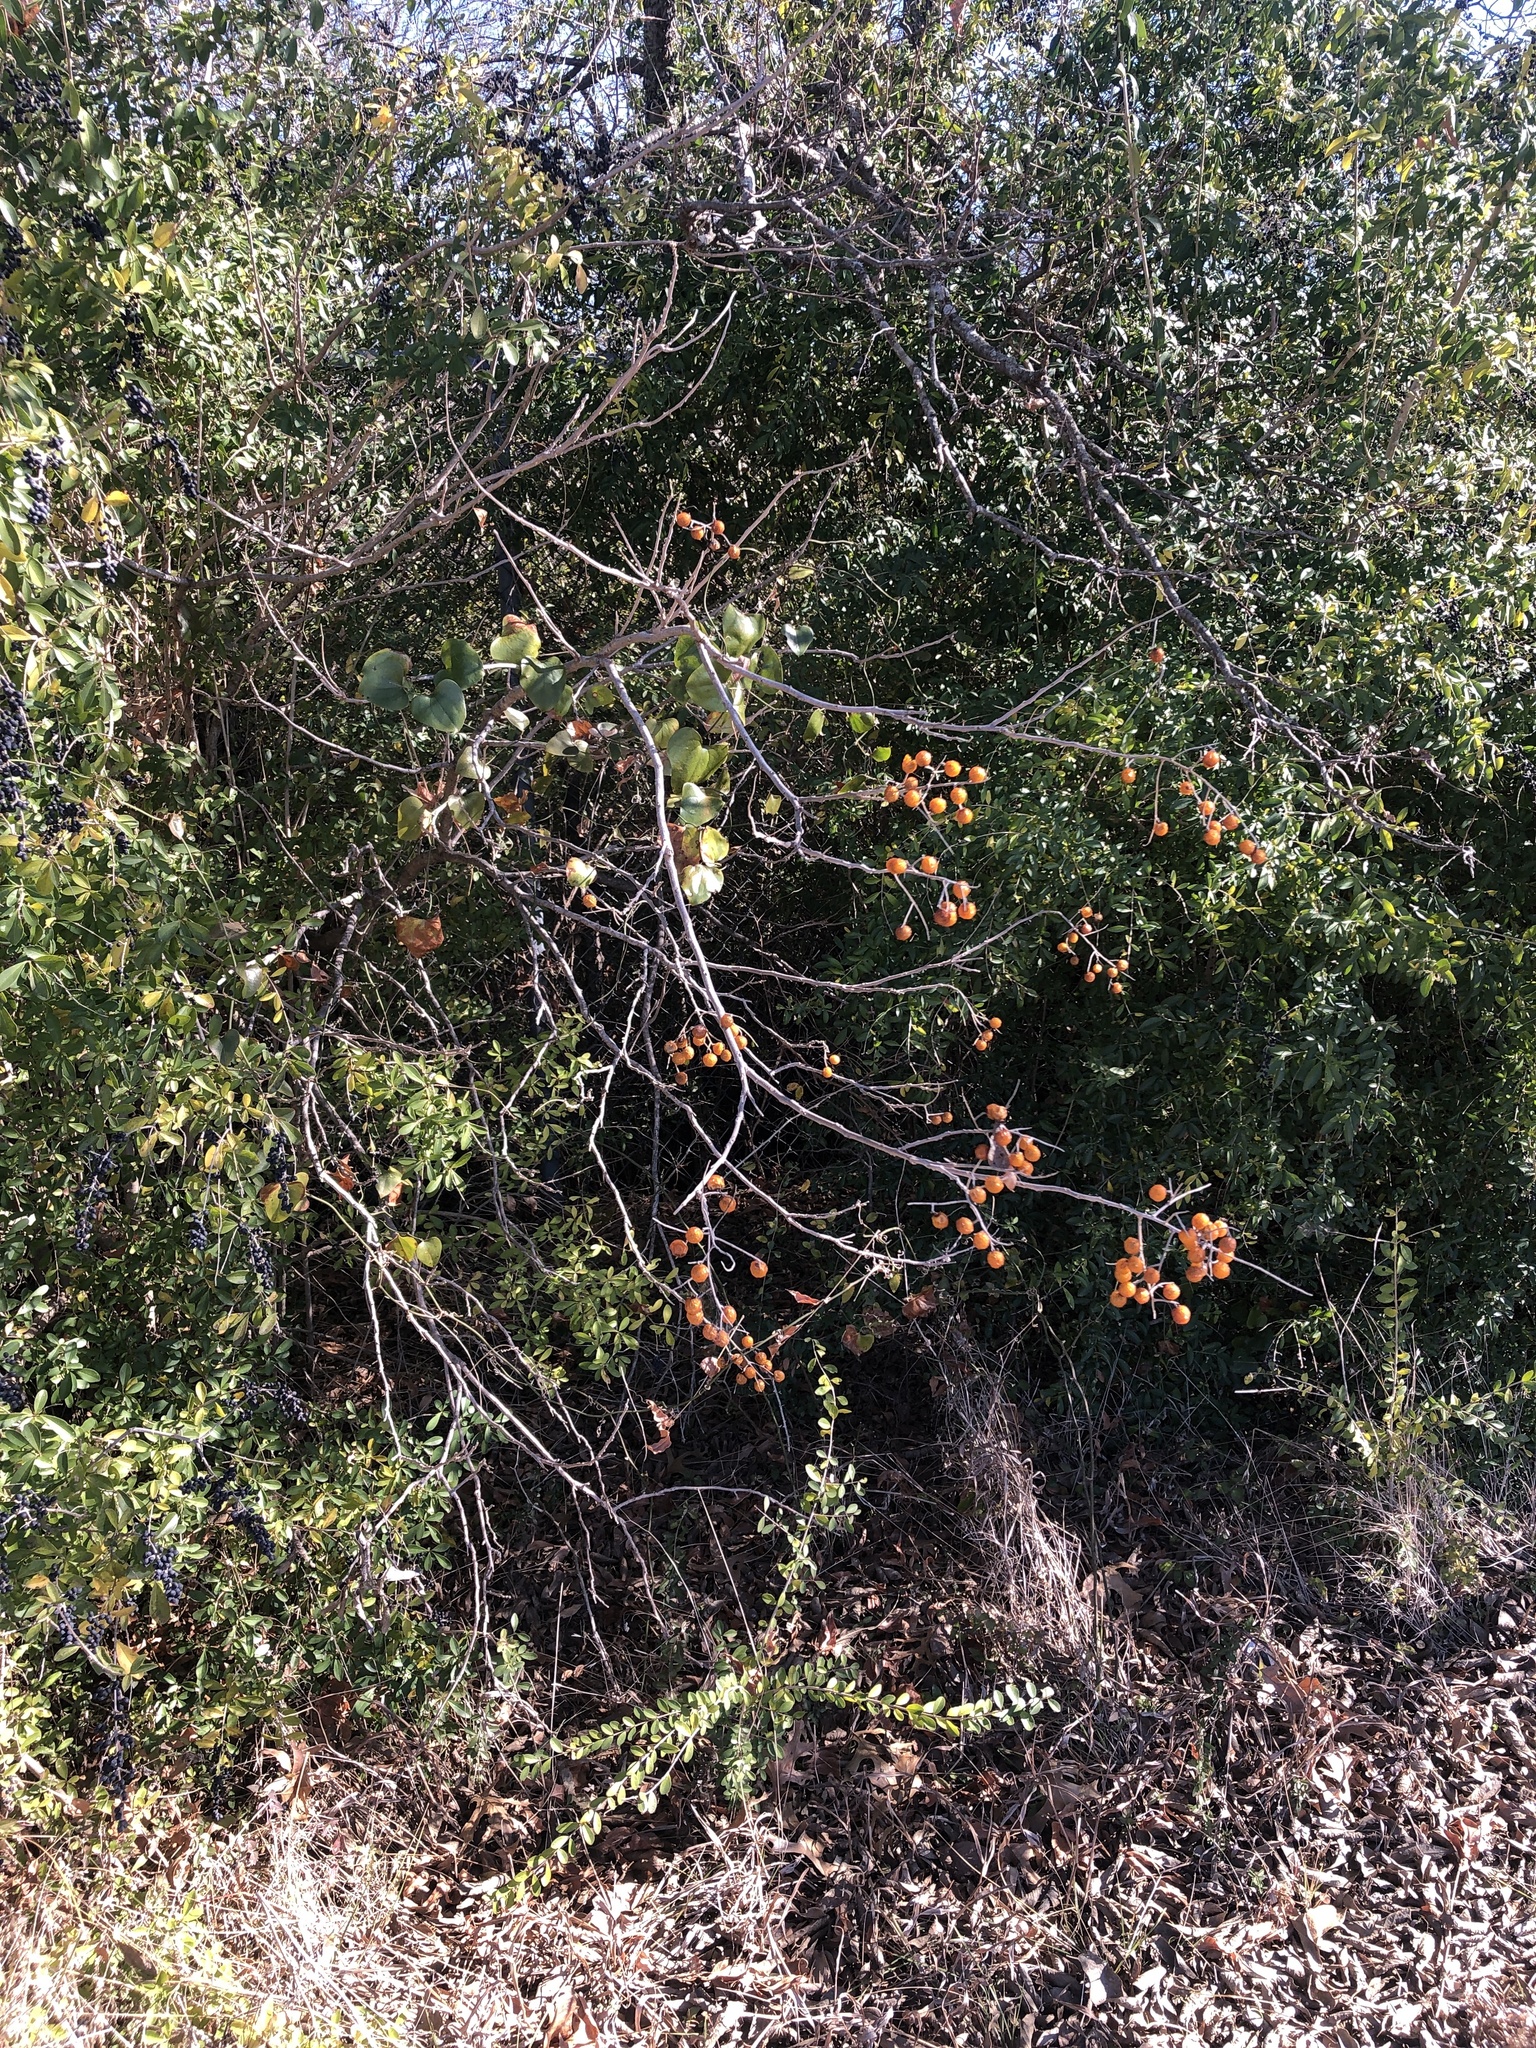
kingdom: Plantae
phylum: Tracheophyta
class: Magnoliopsida
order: Sapindales
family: Sapindaceae
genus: Sapindus
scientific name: Sapindus drummondii
